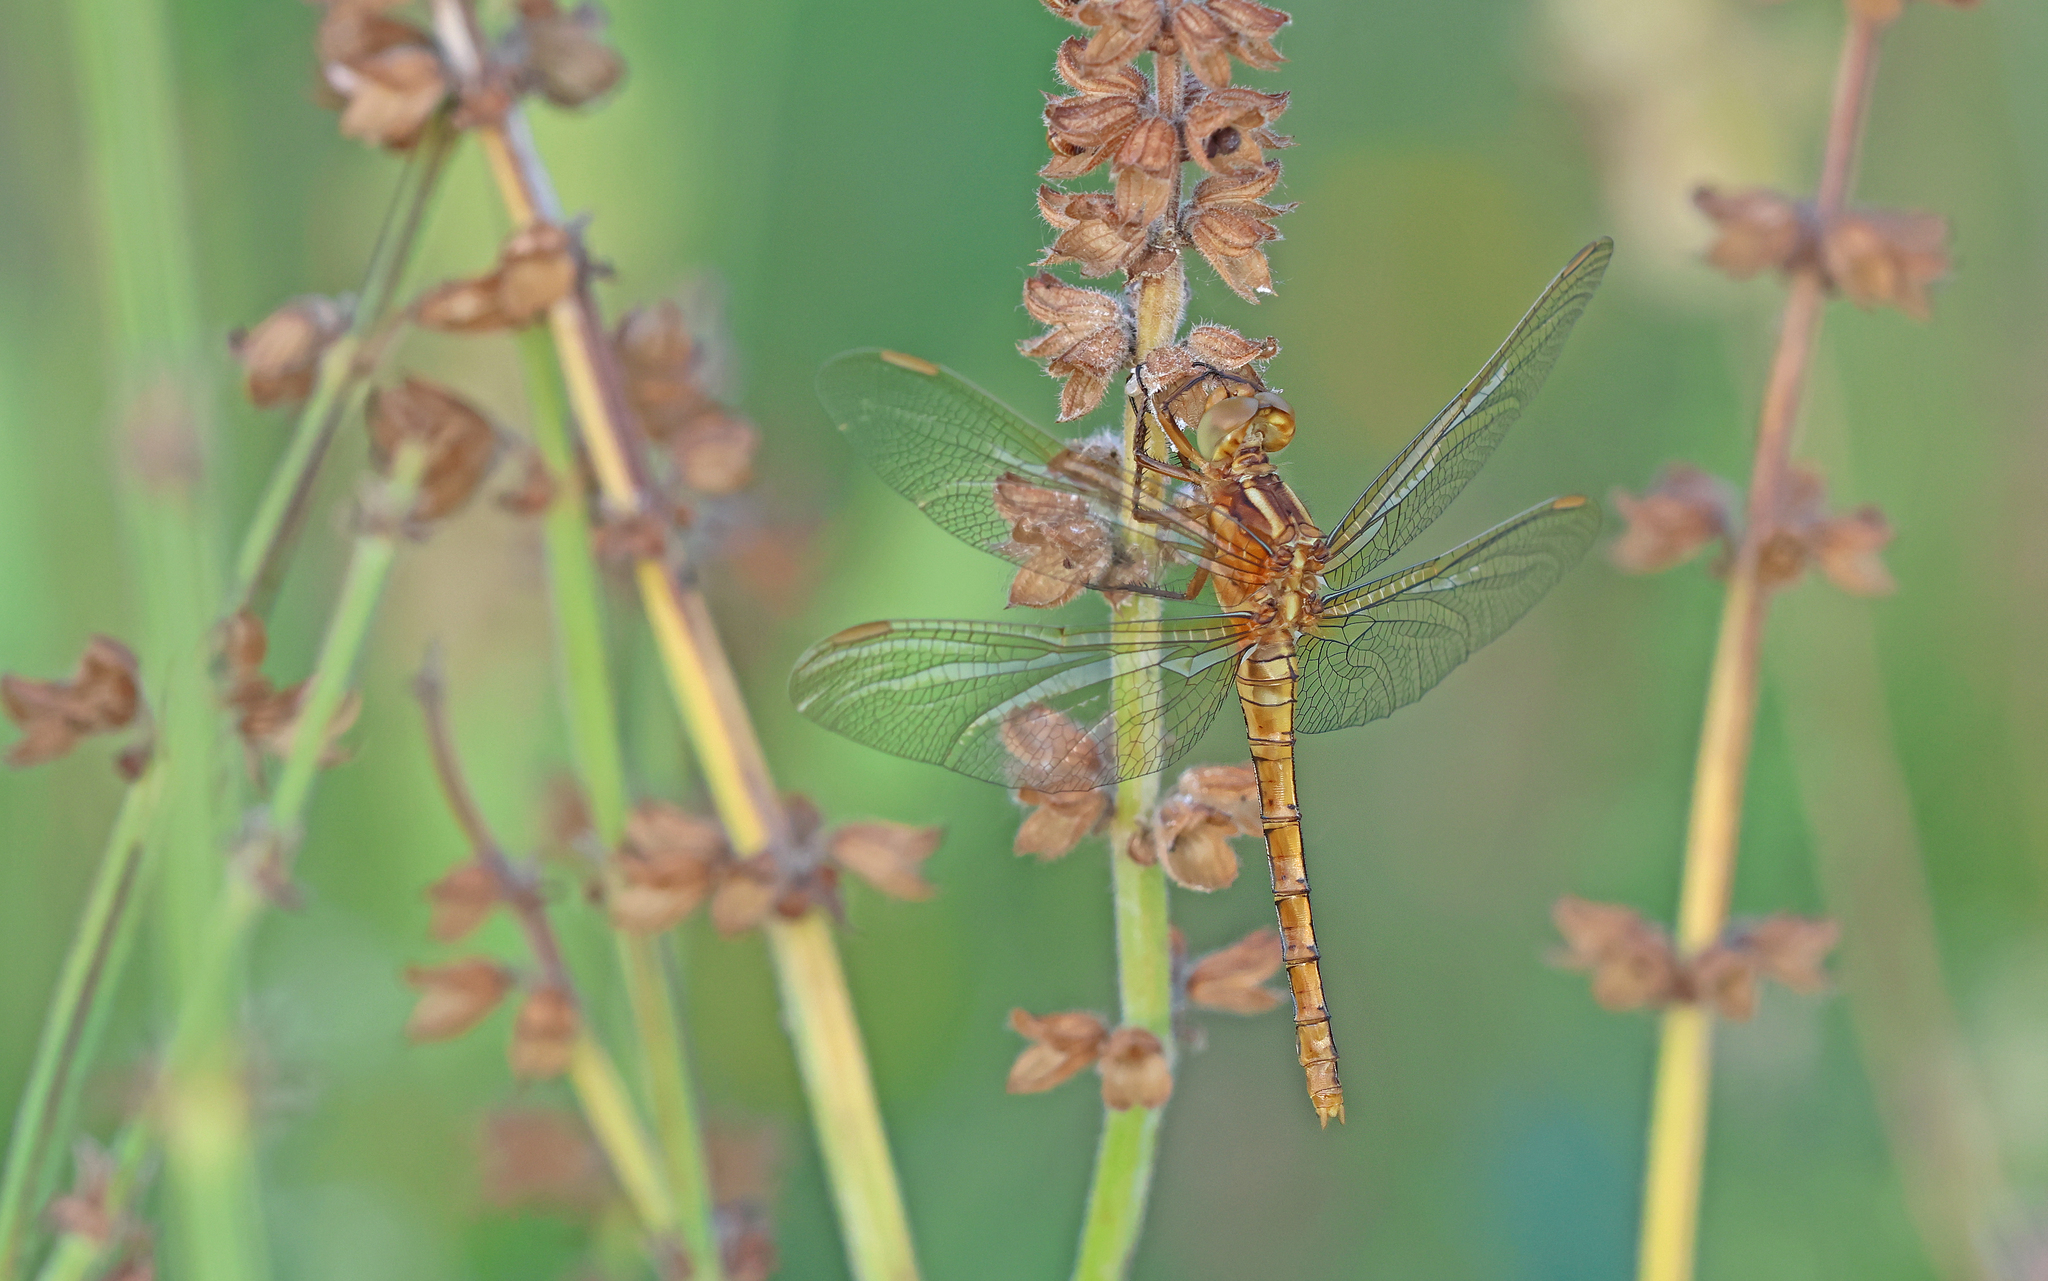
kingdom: Animalia
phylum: Arthropoda
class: Insecta
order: Odonata
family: Libellulidae
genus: Orthetrum
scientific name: Orthetrum coerulescens
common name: Keeled skimmer
